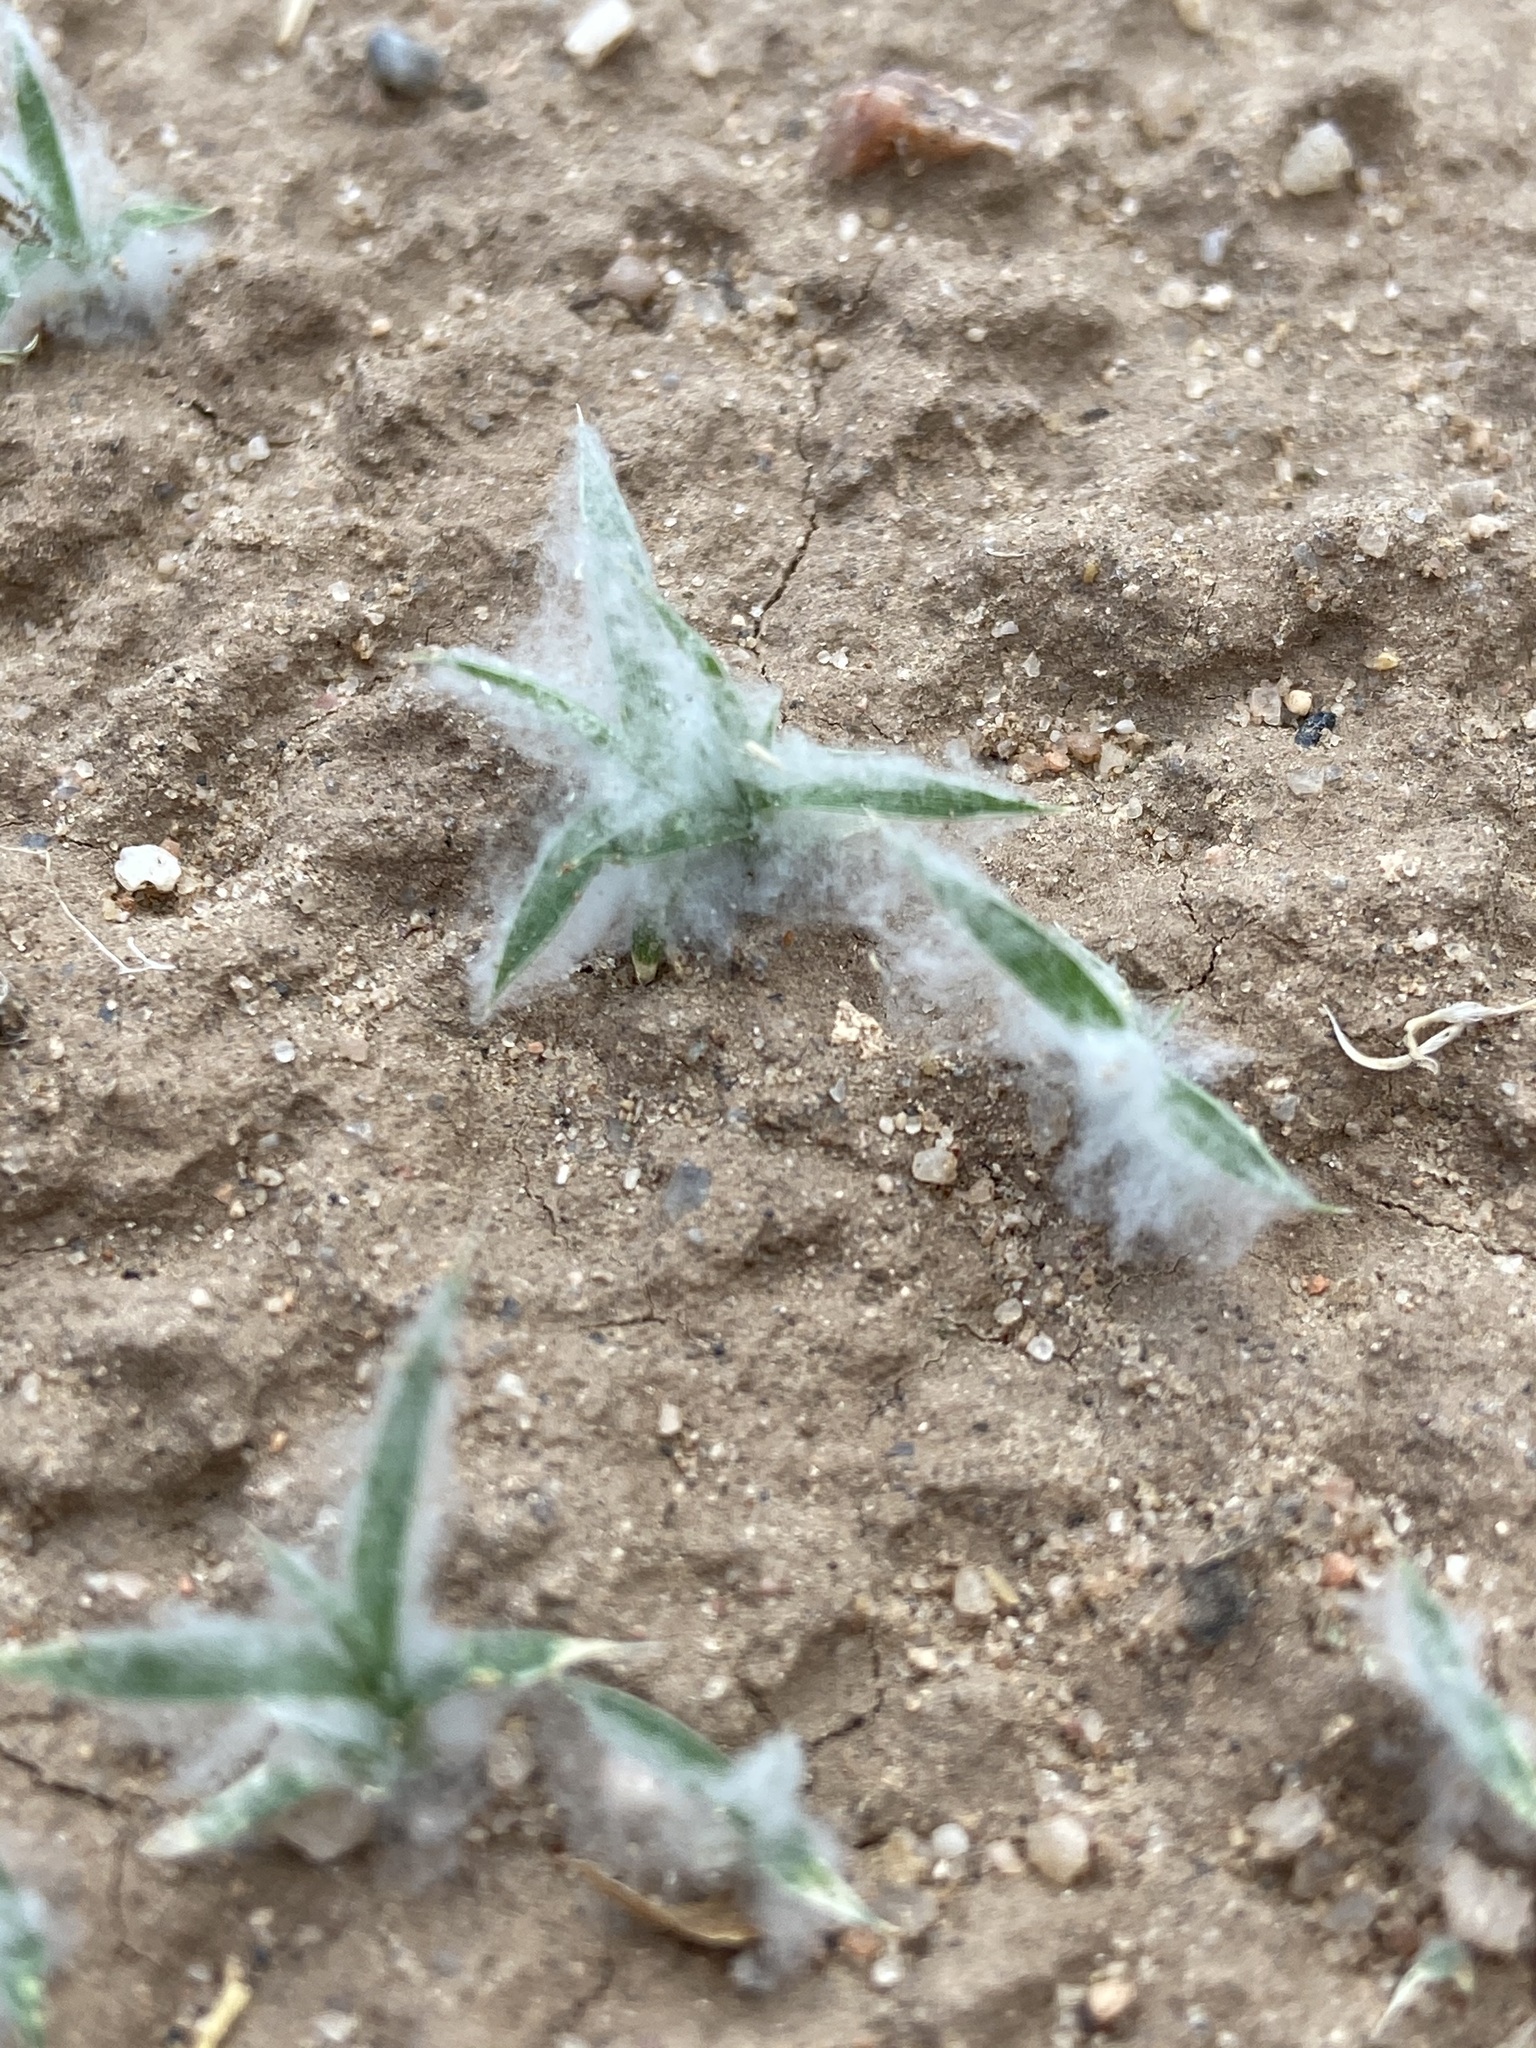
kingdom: Plantae
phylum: Tracheophyta
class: Liliopsida
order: Poales
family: Poaceae
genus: Munroa
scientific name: Munroa squarrosa
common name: False buffalo grass
